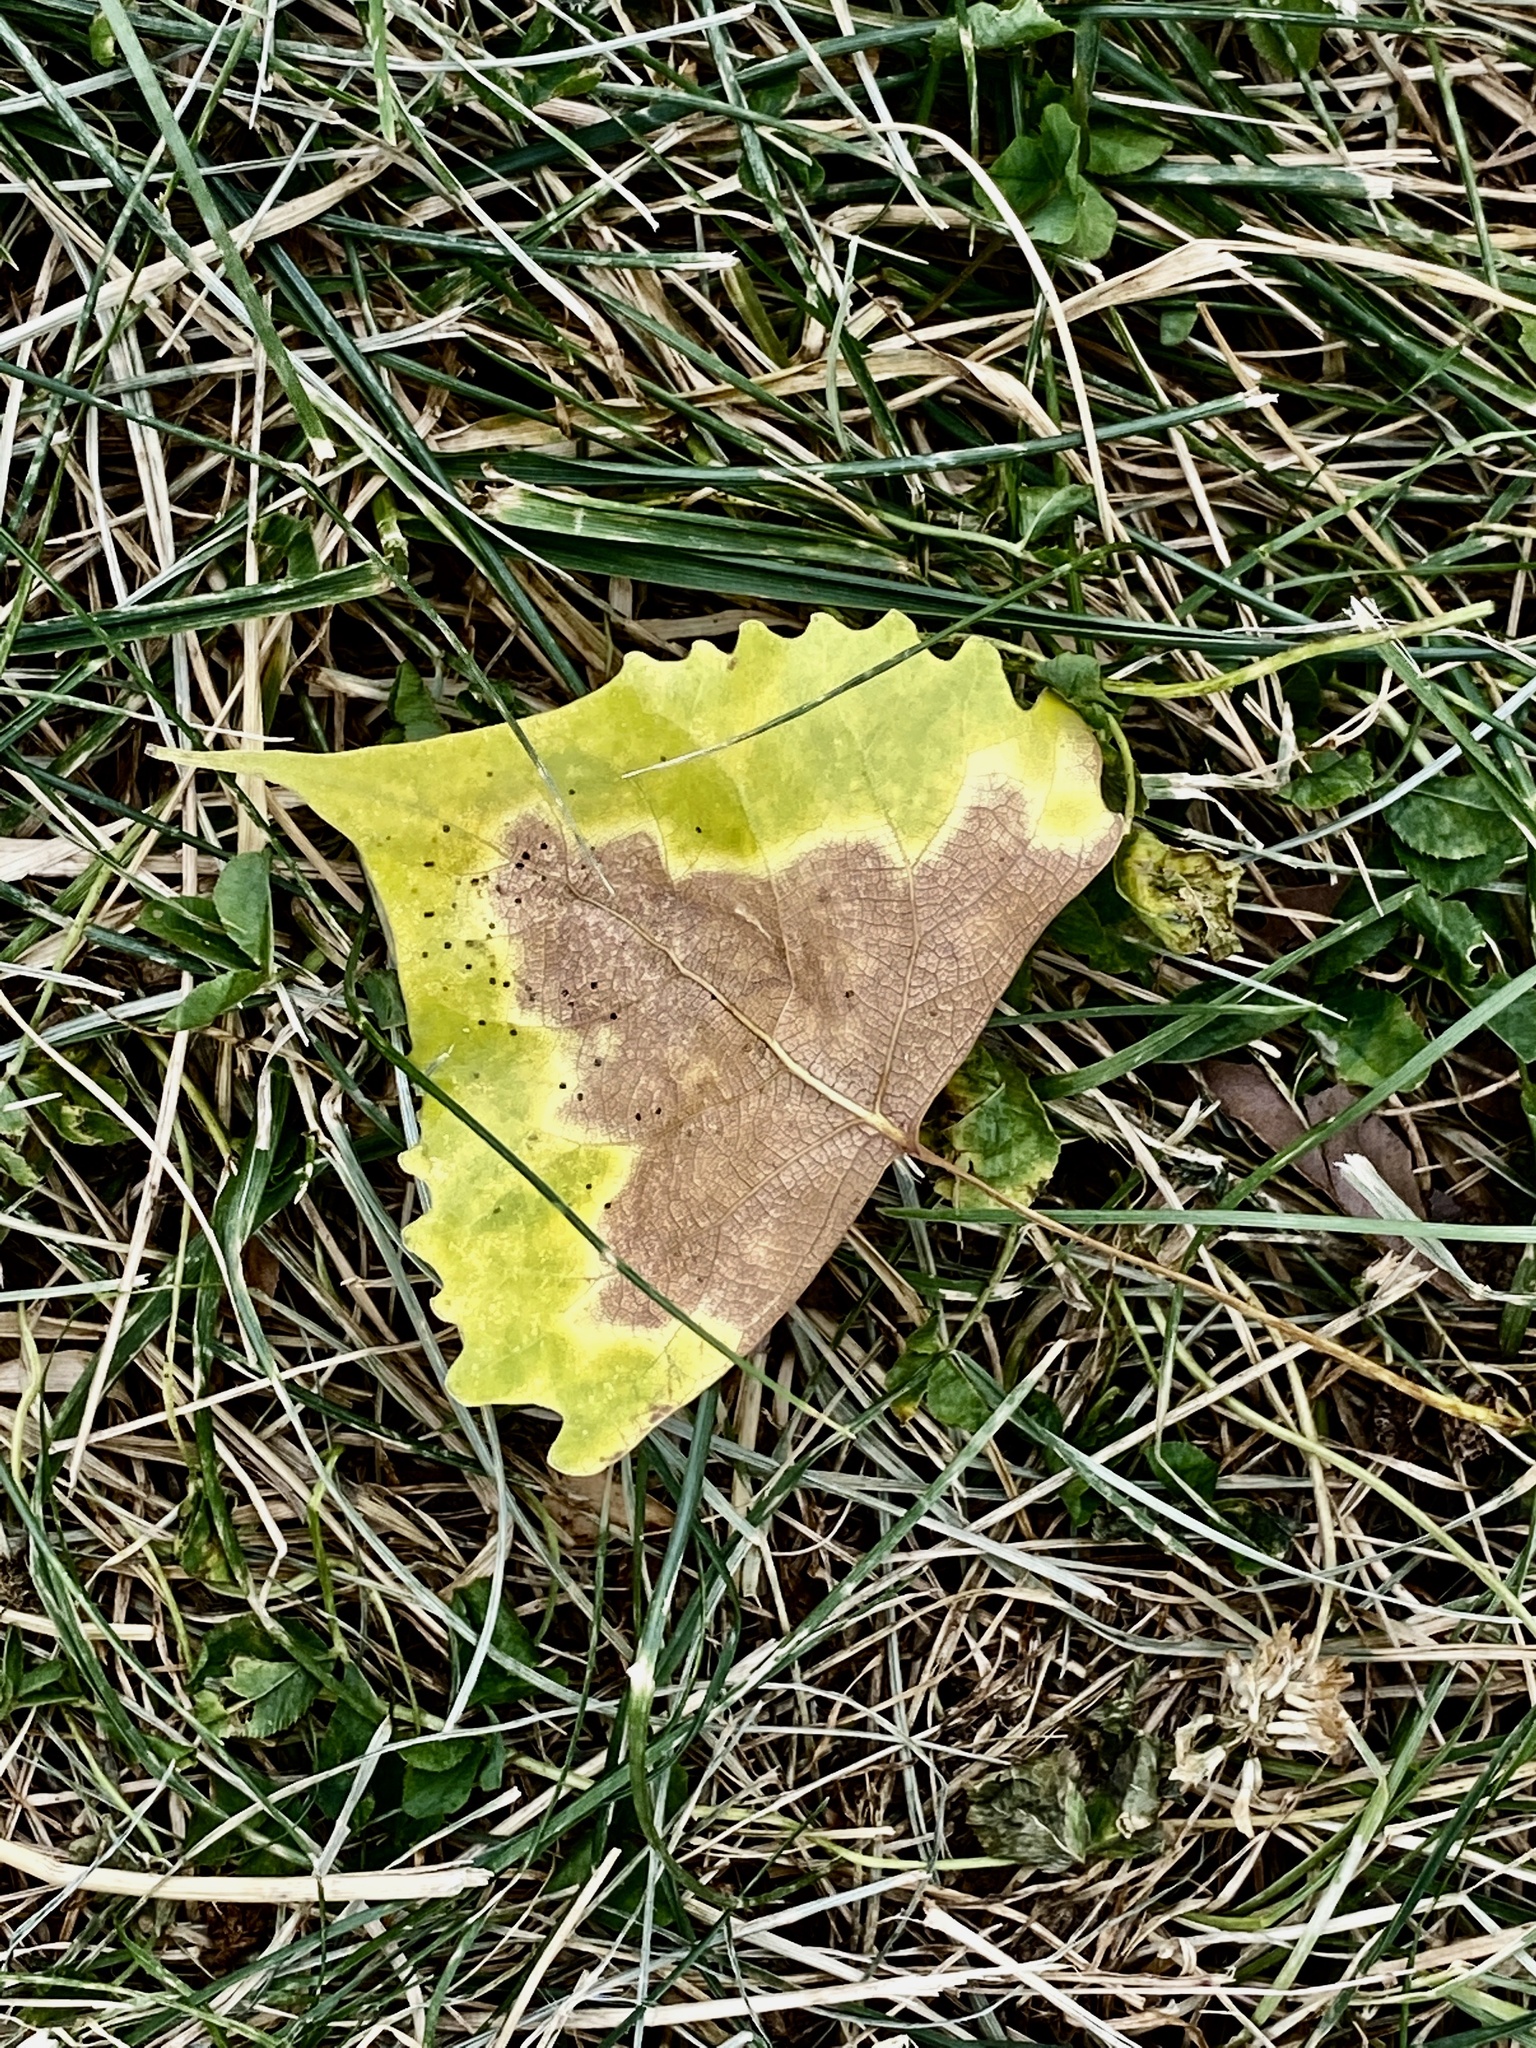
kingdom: Plantae
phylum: Tracheophyta
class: Magnoliopsida
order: Malpighiales
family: Salicaceae
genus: Populus
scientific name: Populus deltoides
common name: Eastern cottonwood
